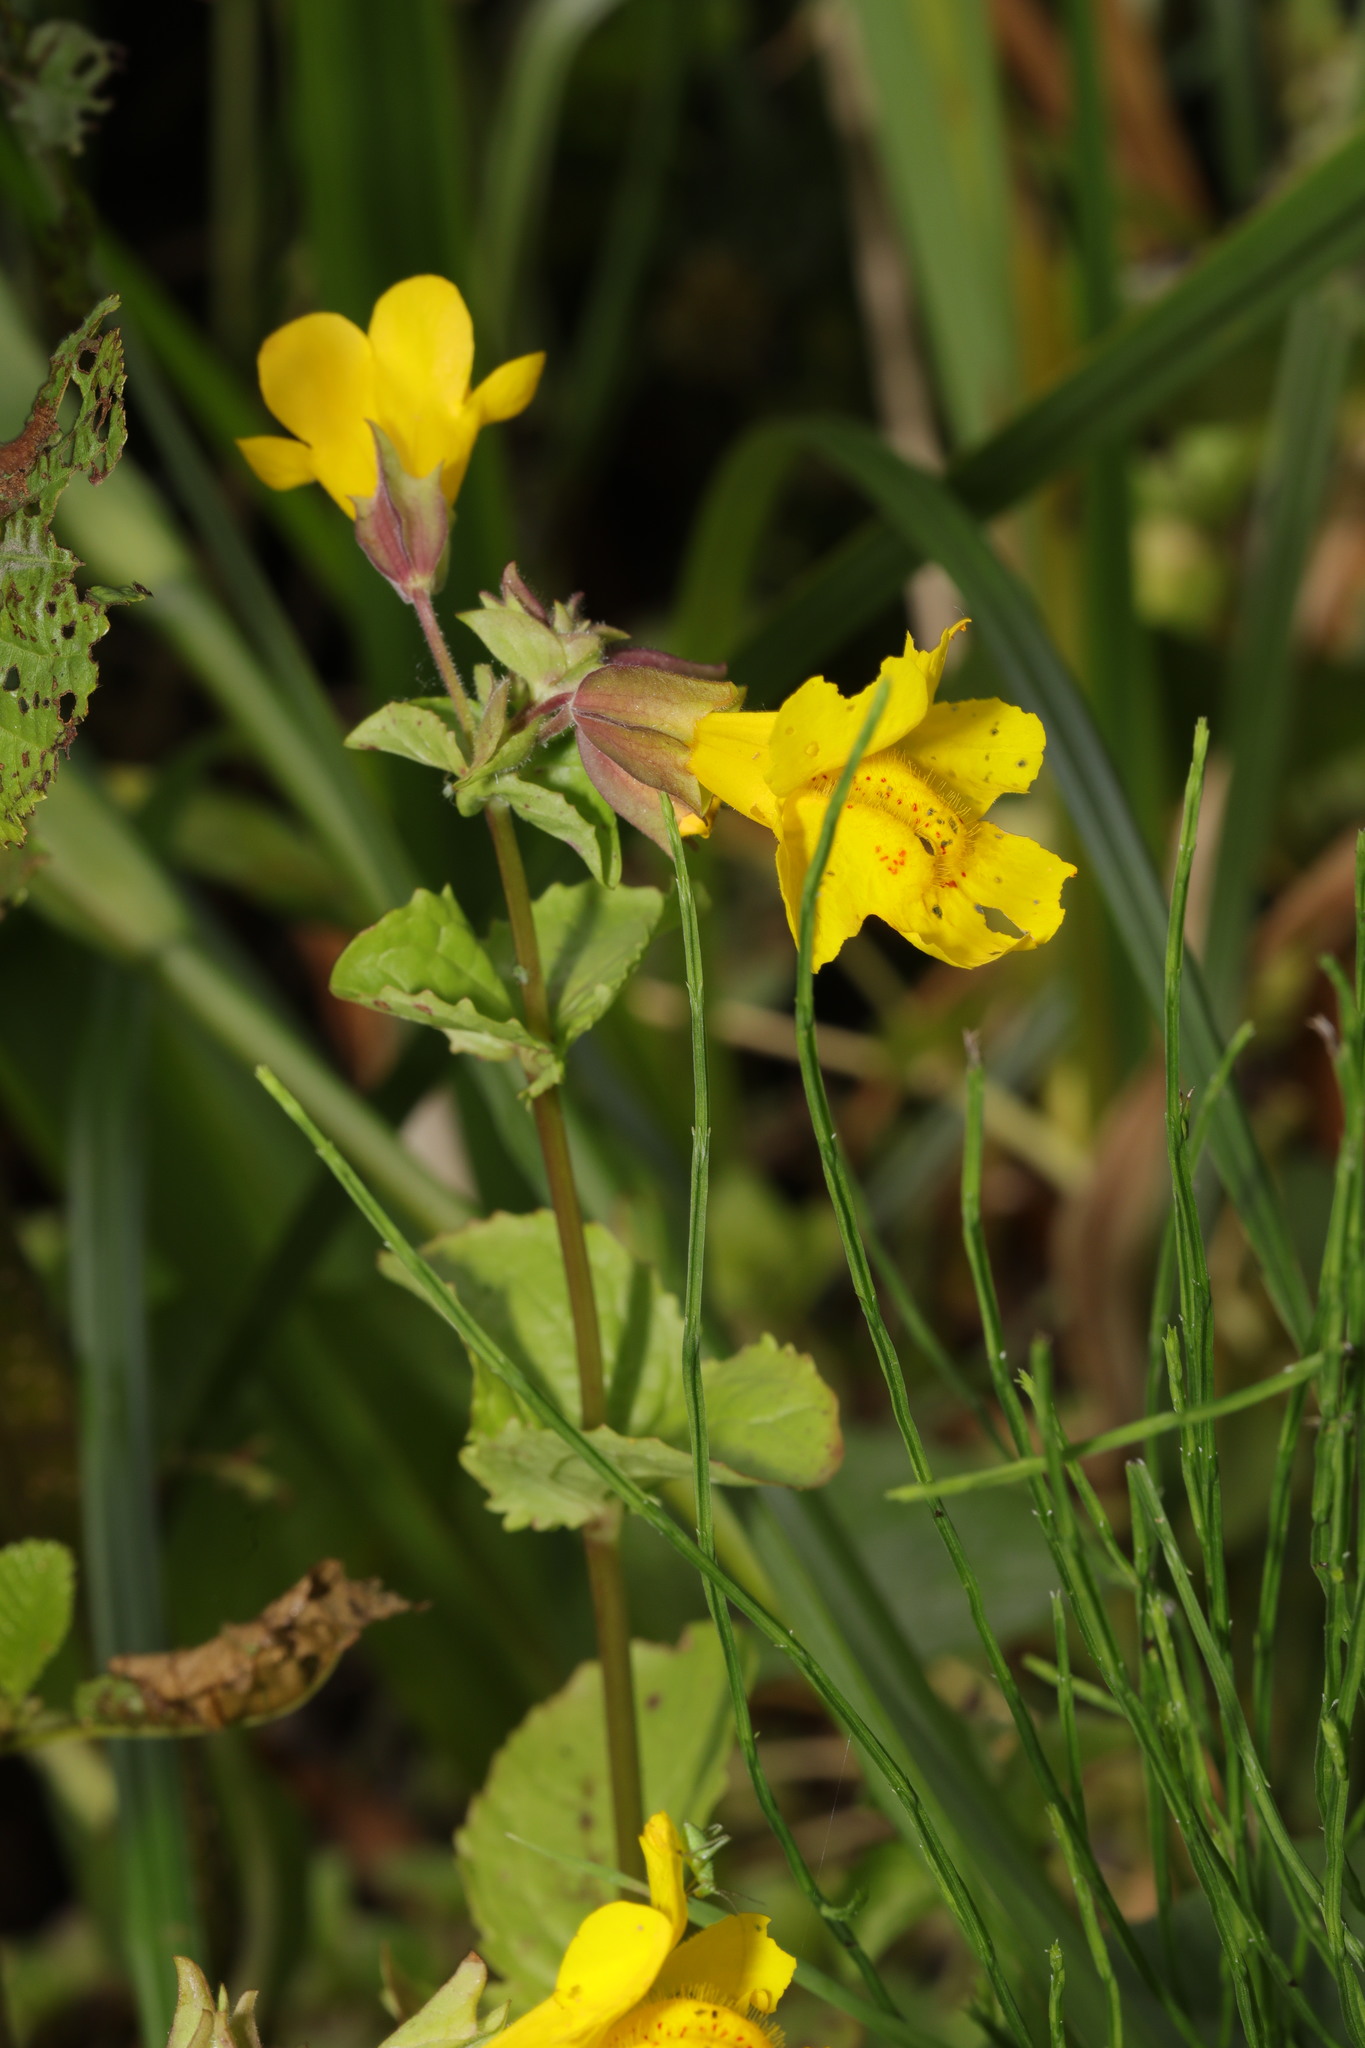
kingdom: Plantae
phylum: Tracheophyta
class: Magnoliopsida
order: Lamiales
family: Phrymaceae
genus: Erythranthe
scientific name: Erythranthe guttata
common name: Monkeyflower
